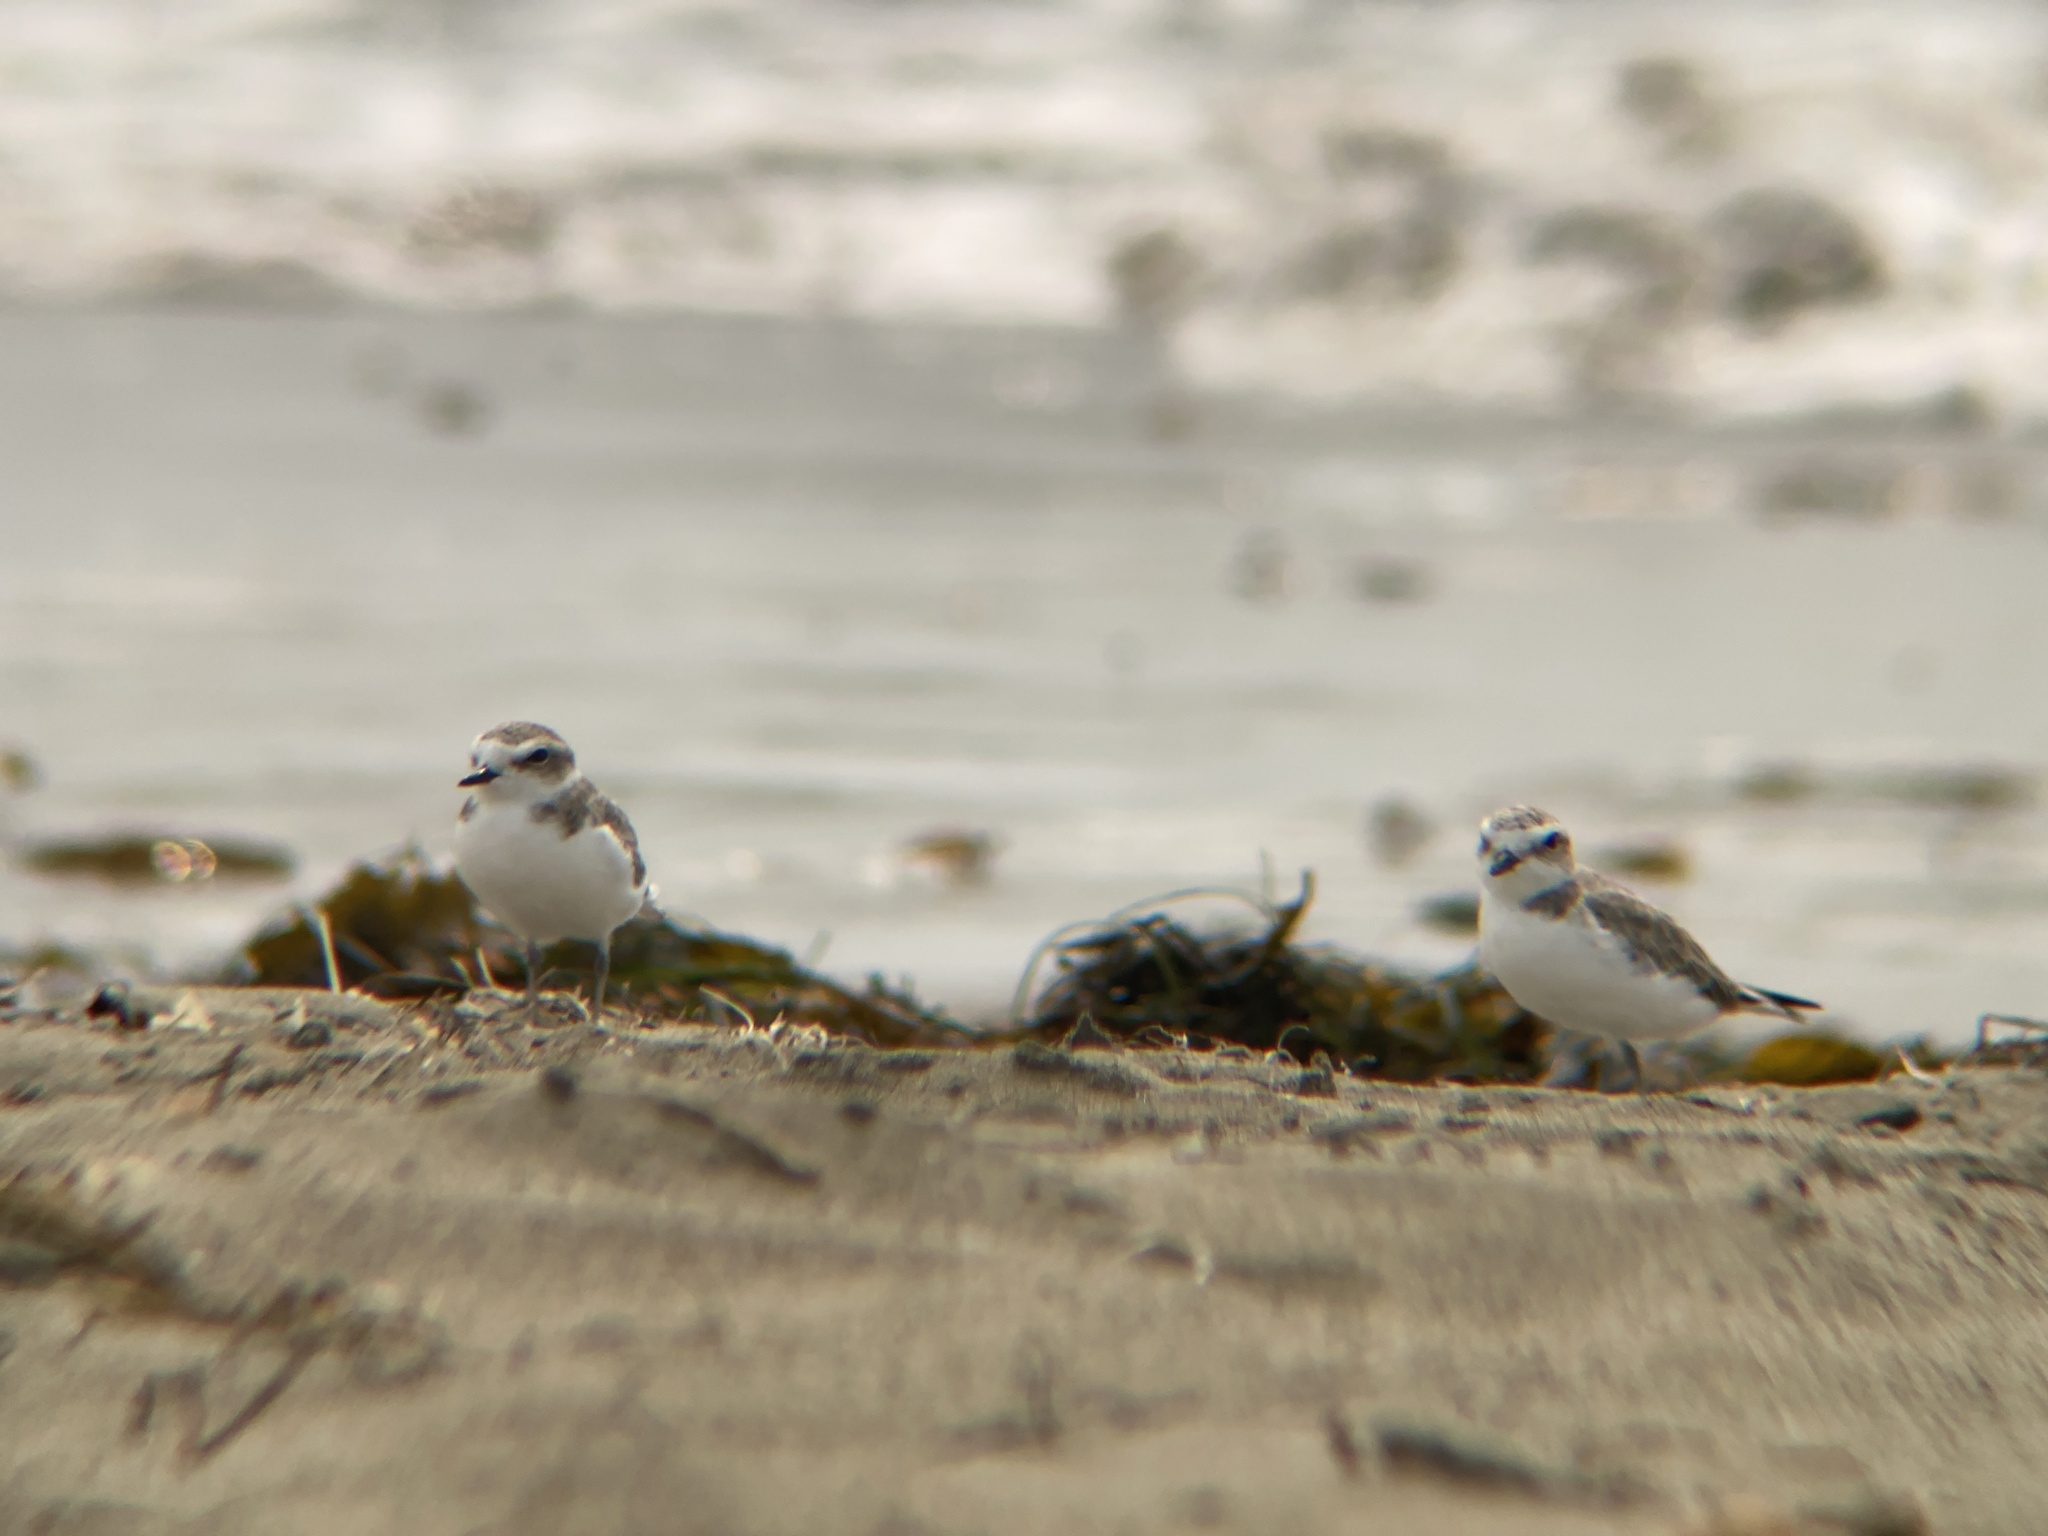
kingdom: Animalia
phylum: Chordata
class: Aves
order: Charadriiformes
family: Charadriidae
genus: Anarhynchus
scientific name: Anarhynchus
